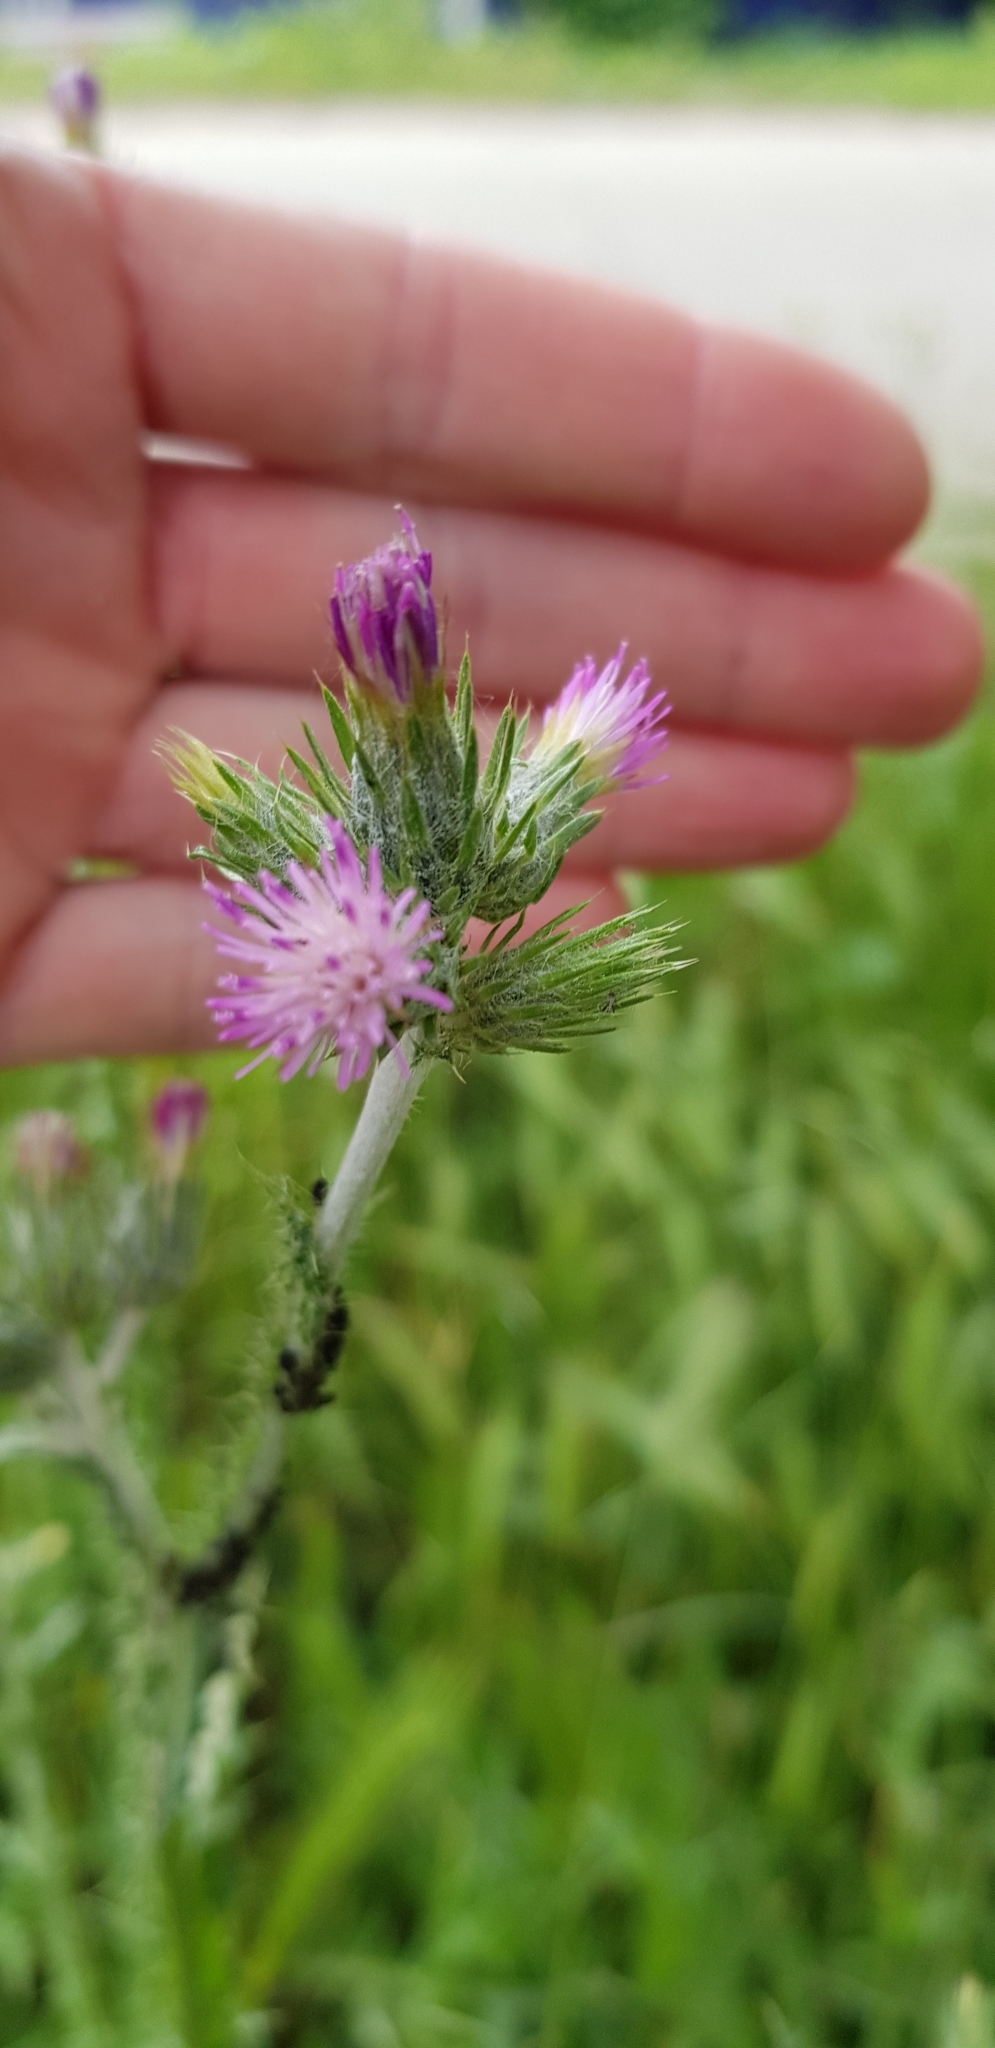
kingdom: Plantae
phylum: Tracheophyta
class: Magnoliopsida
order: Asterales
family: Asteraceae
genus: Carduus
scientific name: Carduus arabicus
